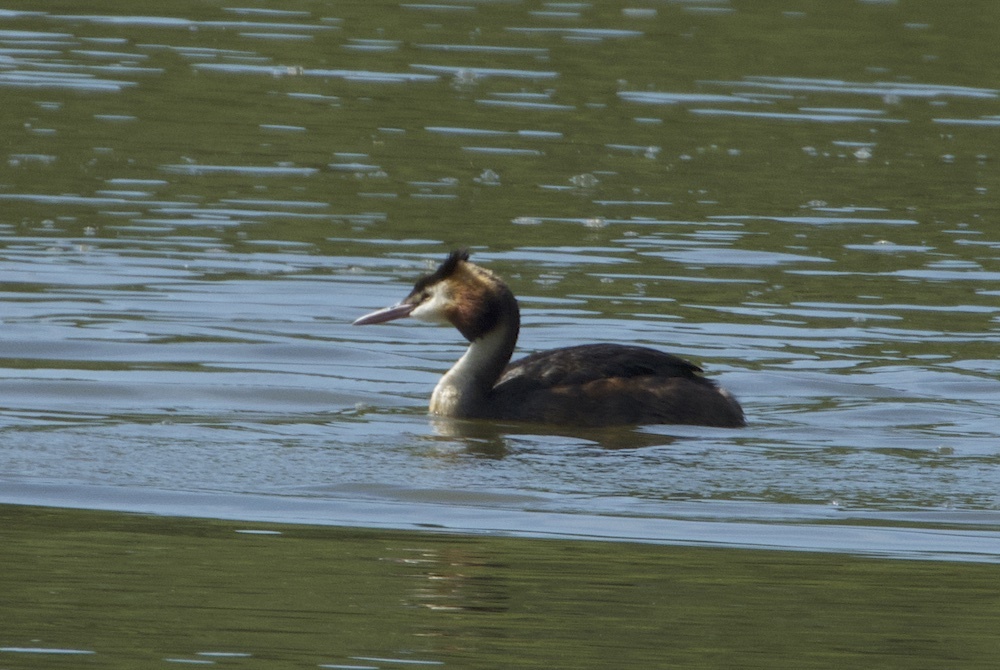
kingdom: Animalia
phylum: Chordata
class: Aves
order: Podicipediformes
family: Podicipedidae
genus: Podiceps
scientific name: Podiceps cristatus
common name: Great crested grebe
